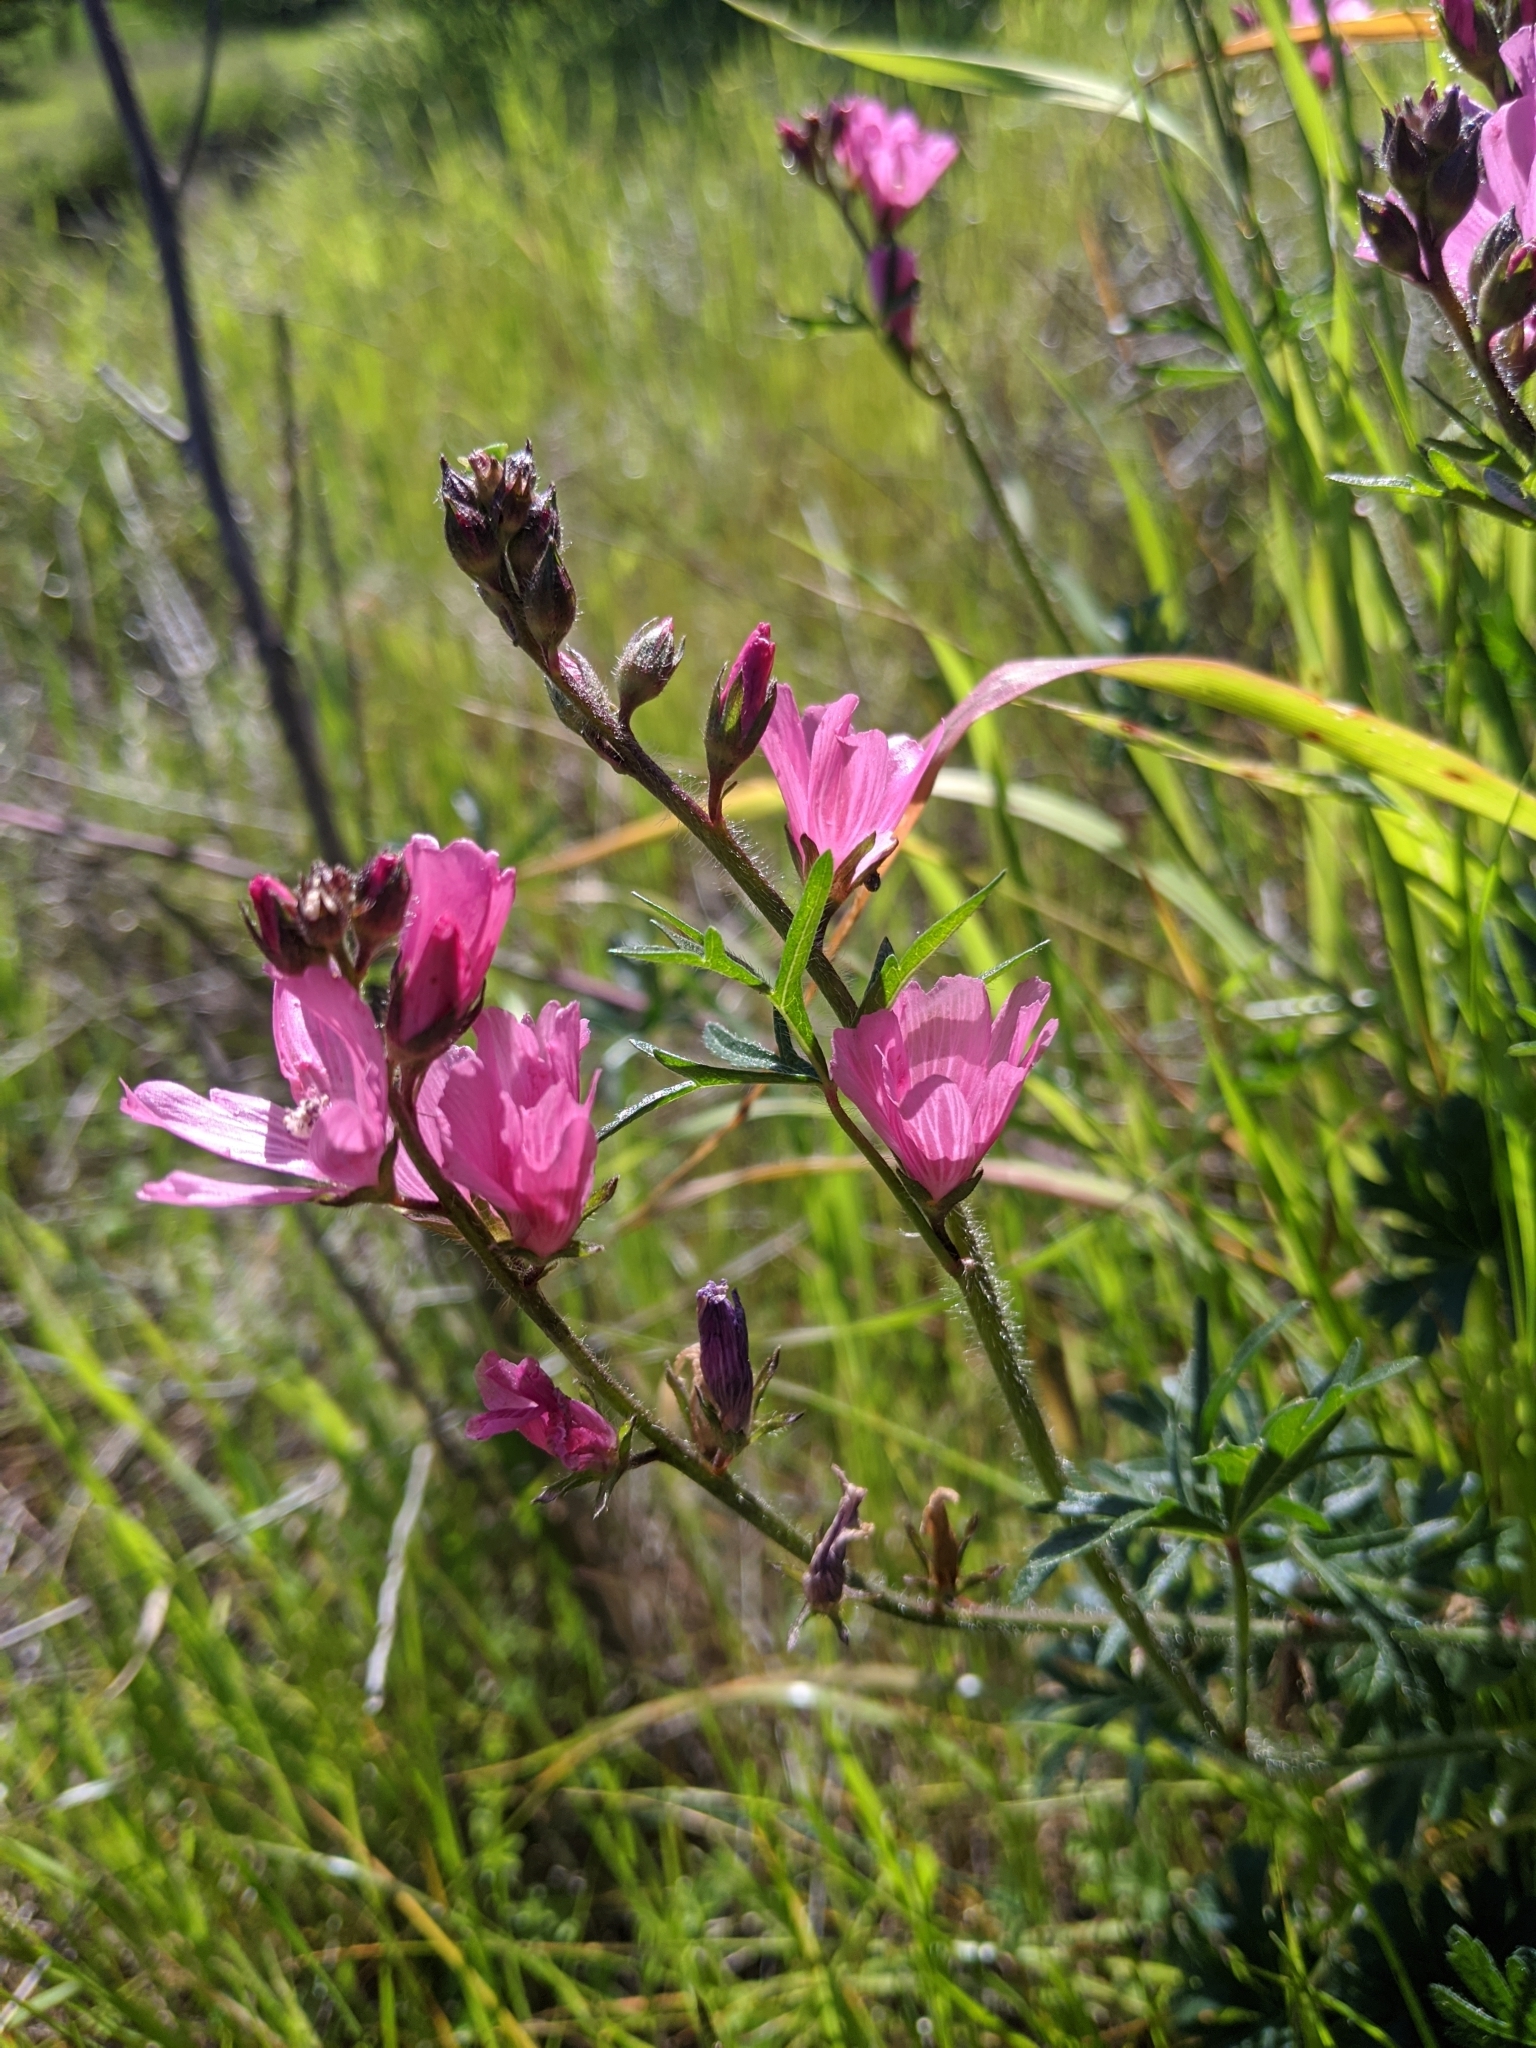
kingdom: Plantae
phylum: Tracheophyta
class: Magnoliopsida
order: Malvales
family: Malvaceae
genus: Sidalcea
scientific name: Sidalcea malviflora
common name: Greek mallow
